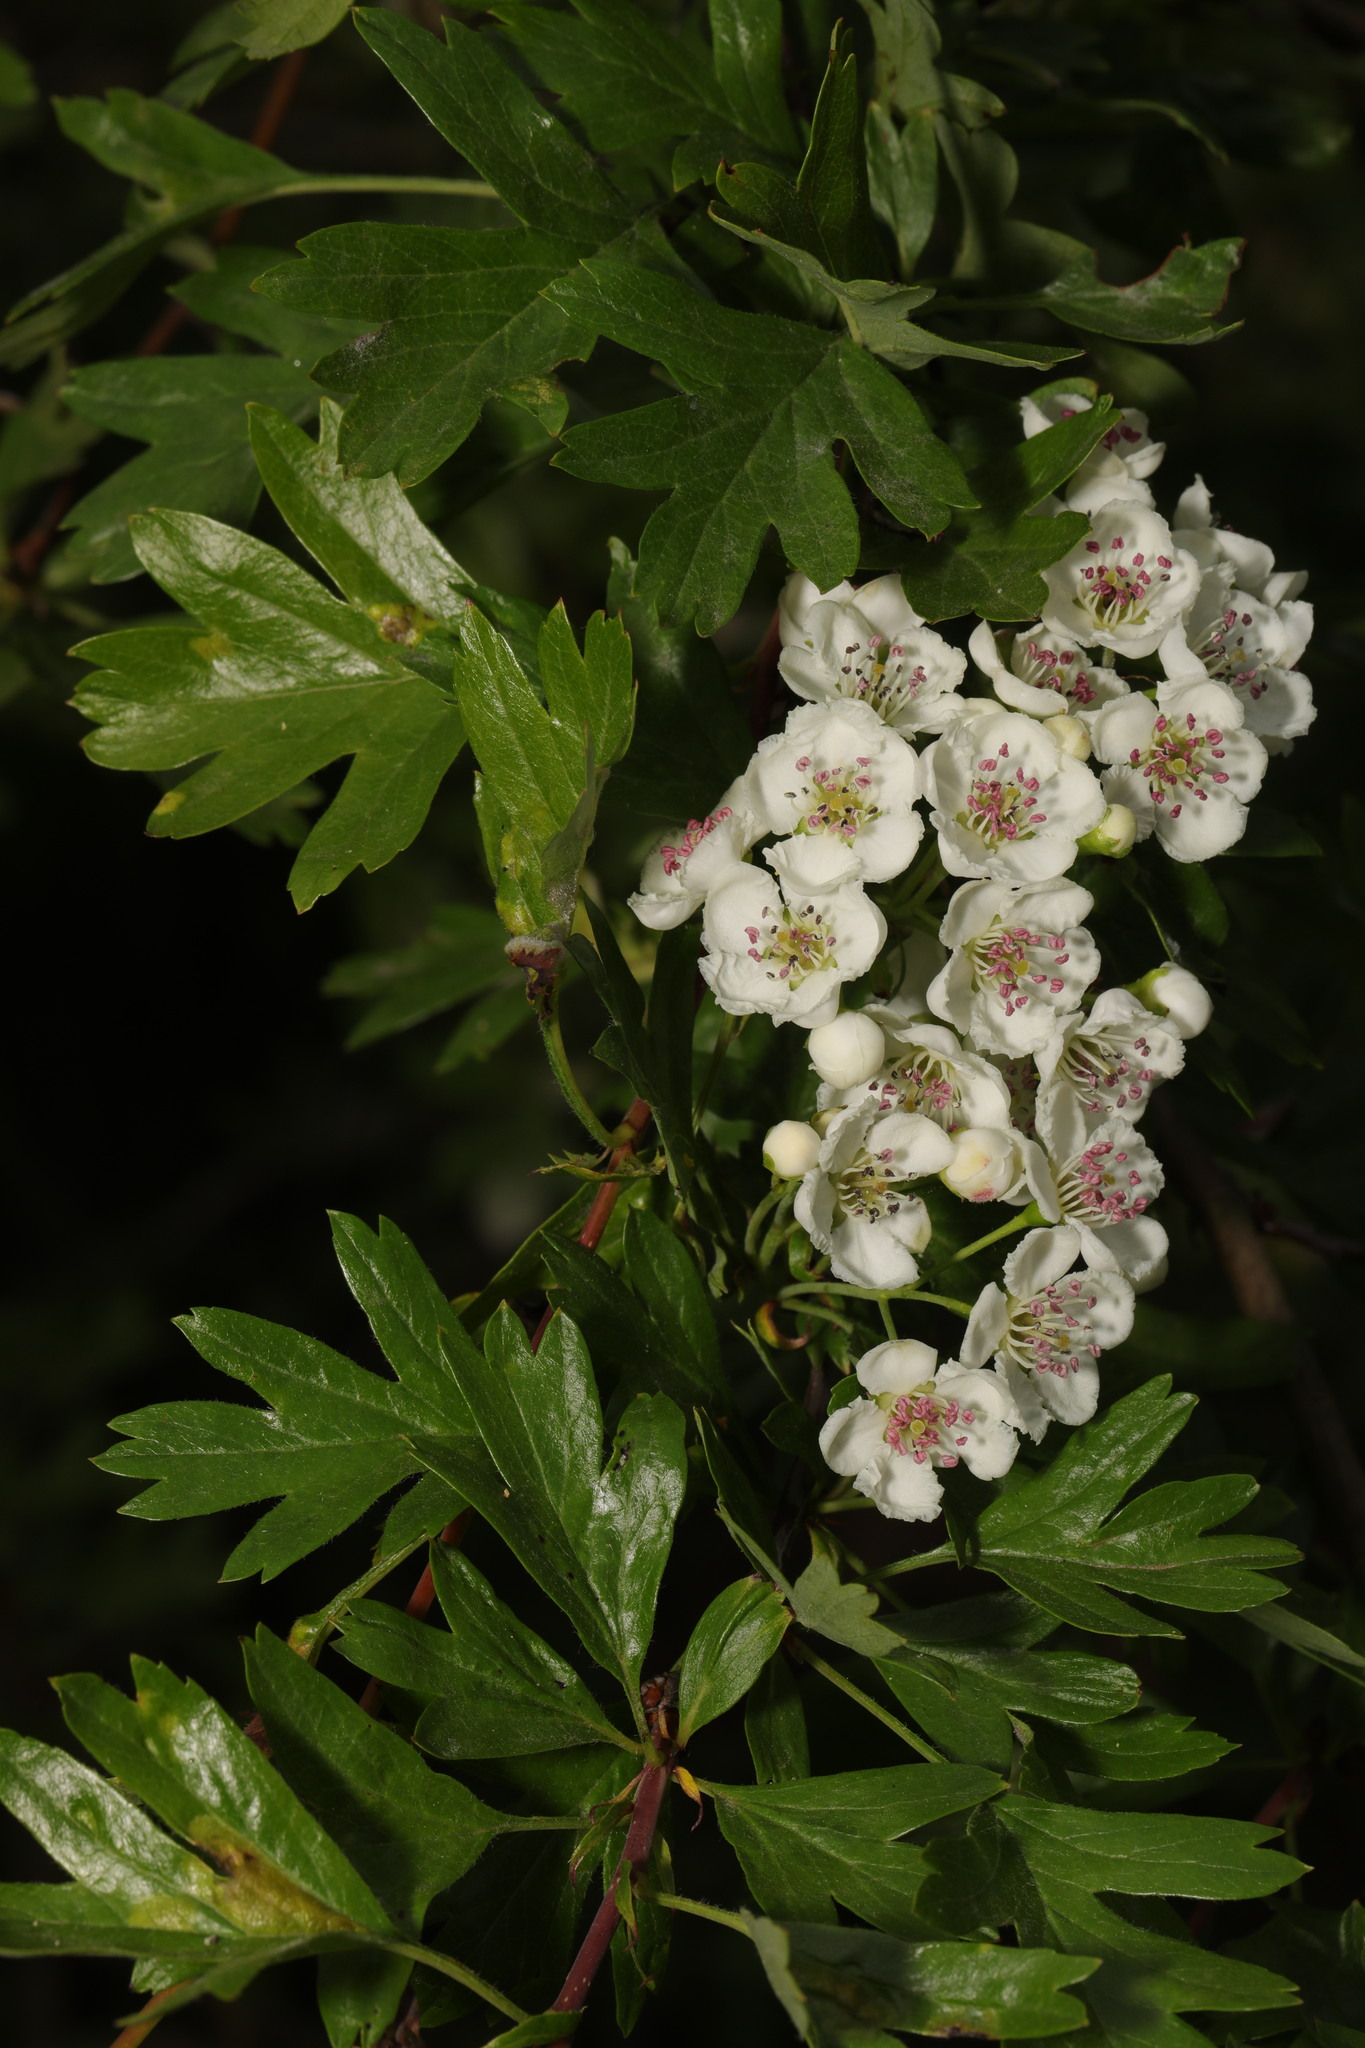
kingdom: Plantae
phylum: Tracheophyta
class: Magnoliopsida
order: Rosales
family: Rosaceae
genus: Crataegus
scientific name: Crataegus monogyna
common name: Hawthorn
